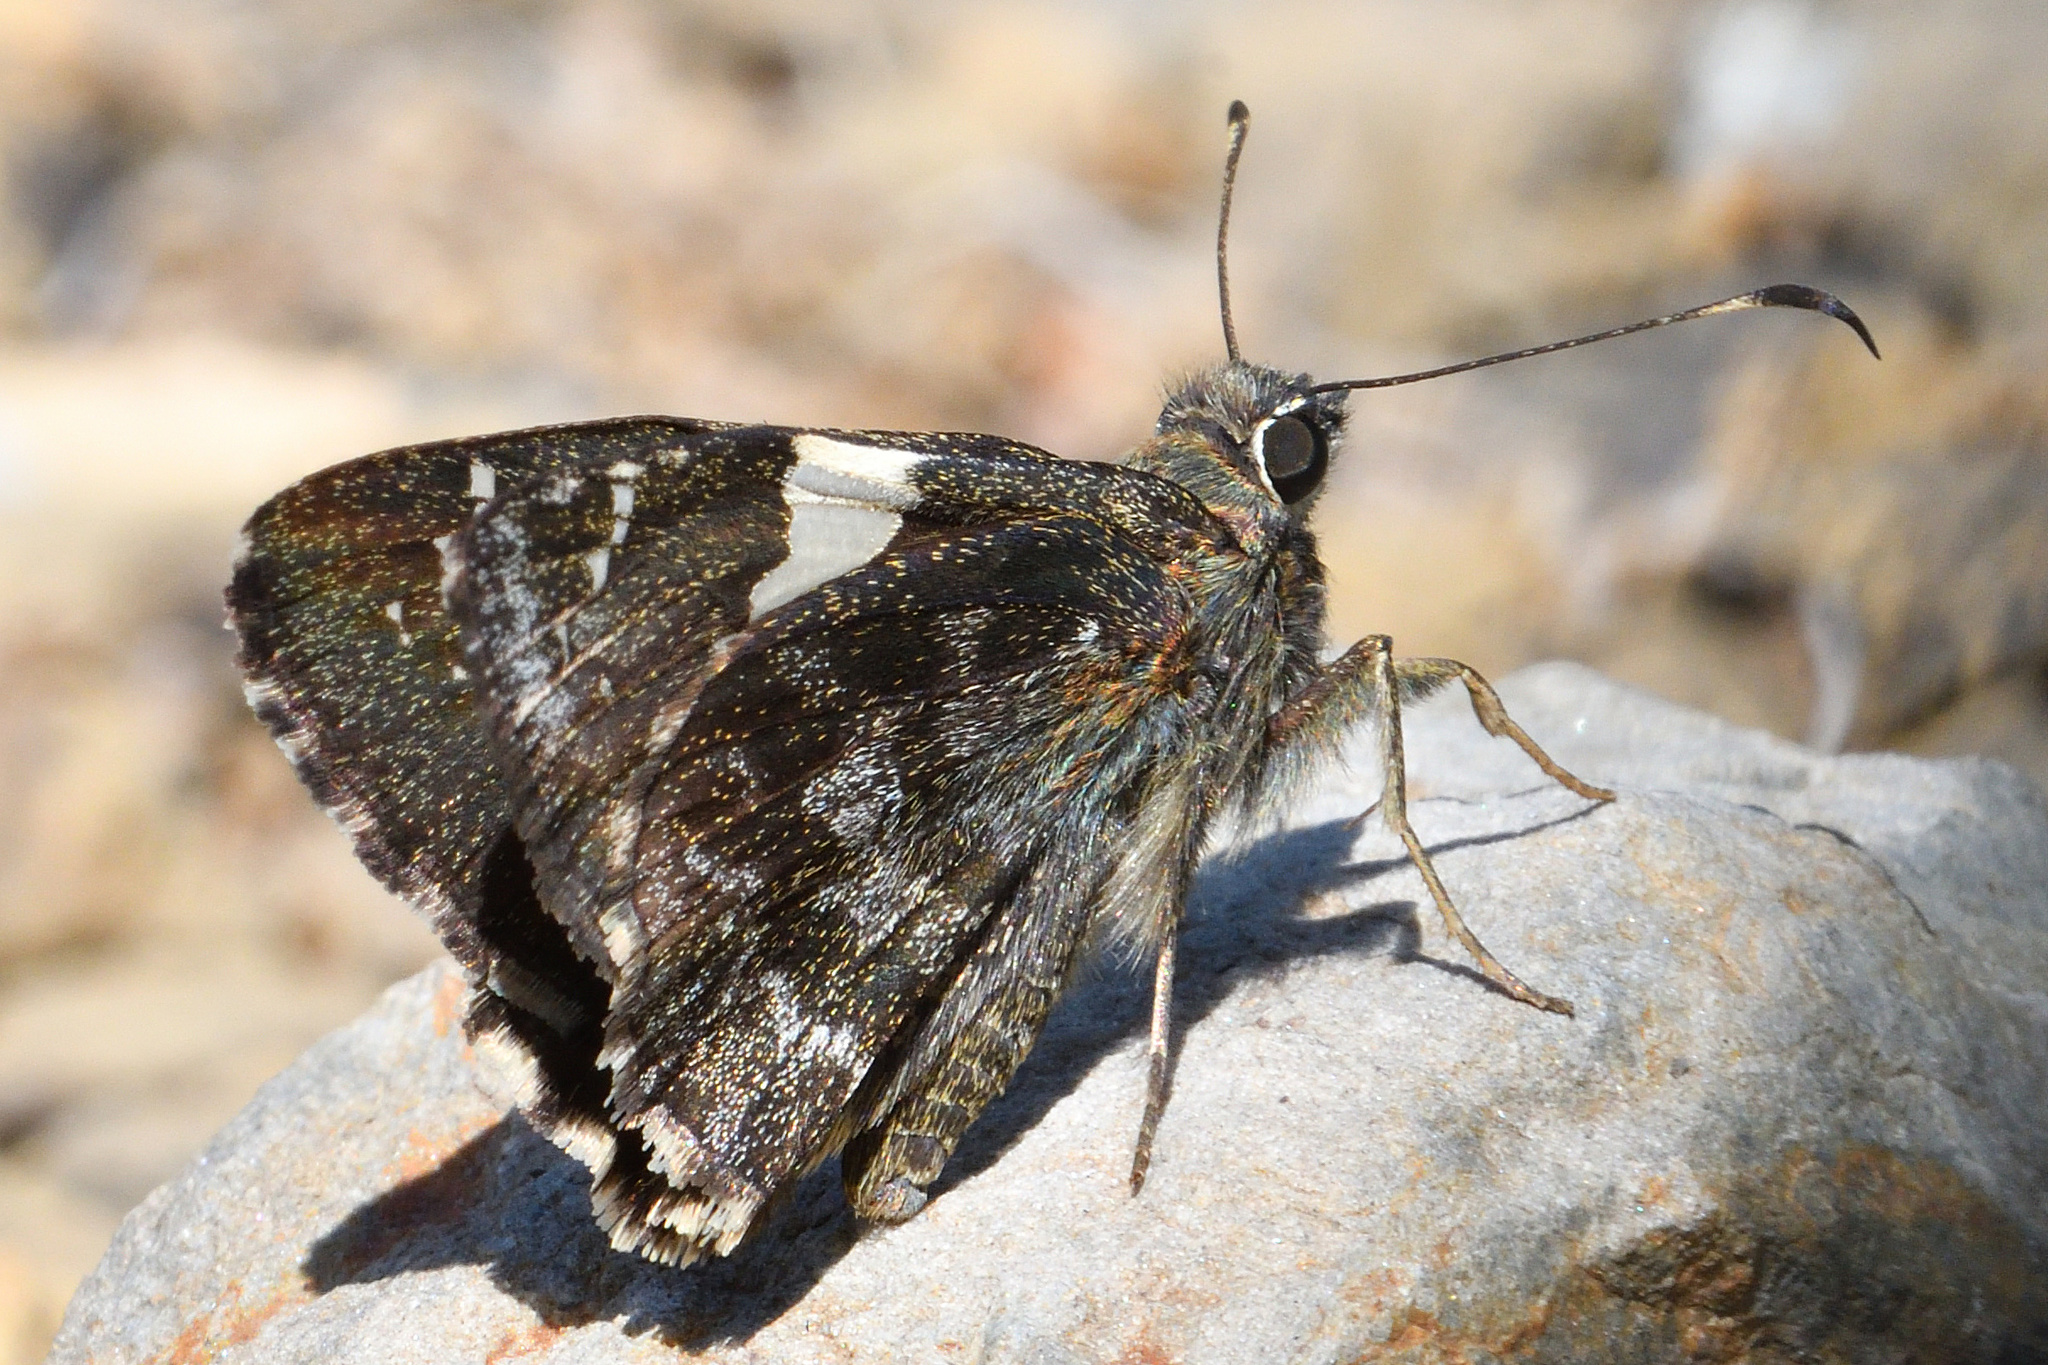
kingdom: Animalia
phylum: Arthropoda
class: Insecta
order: Lepidoptera
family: Hesperiidae
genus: Notocrypta
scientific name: Notocrypta feisthamelii
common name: Spotted demon
